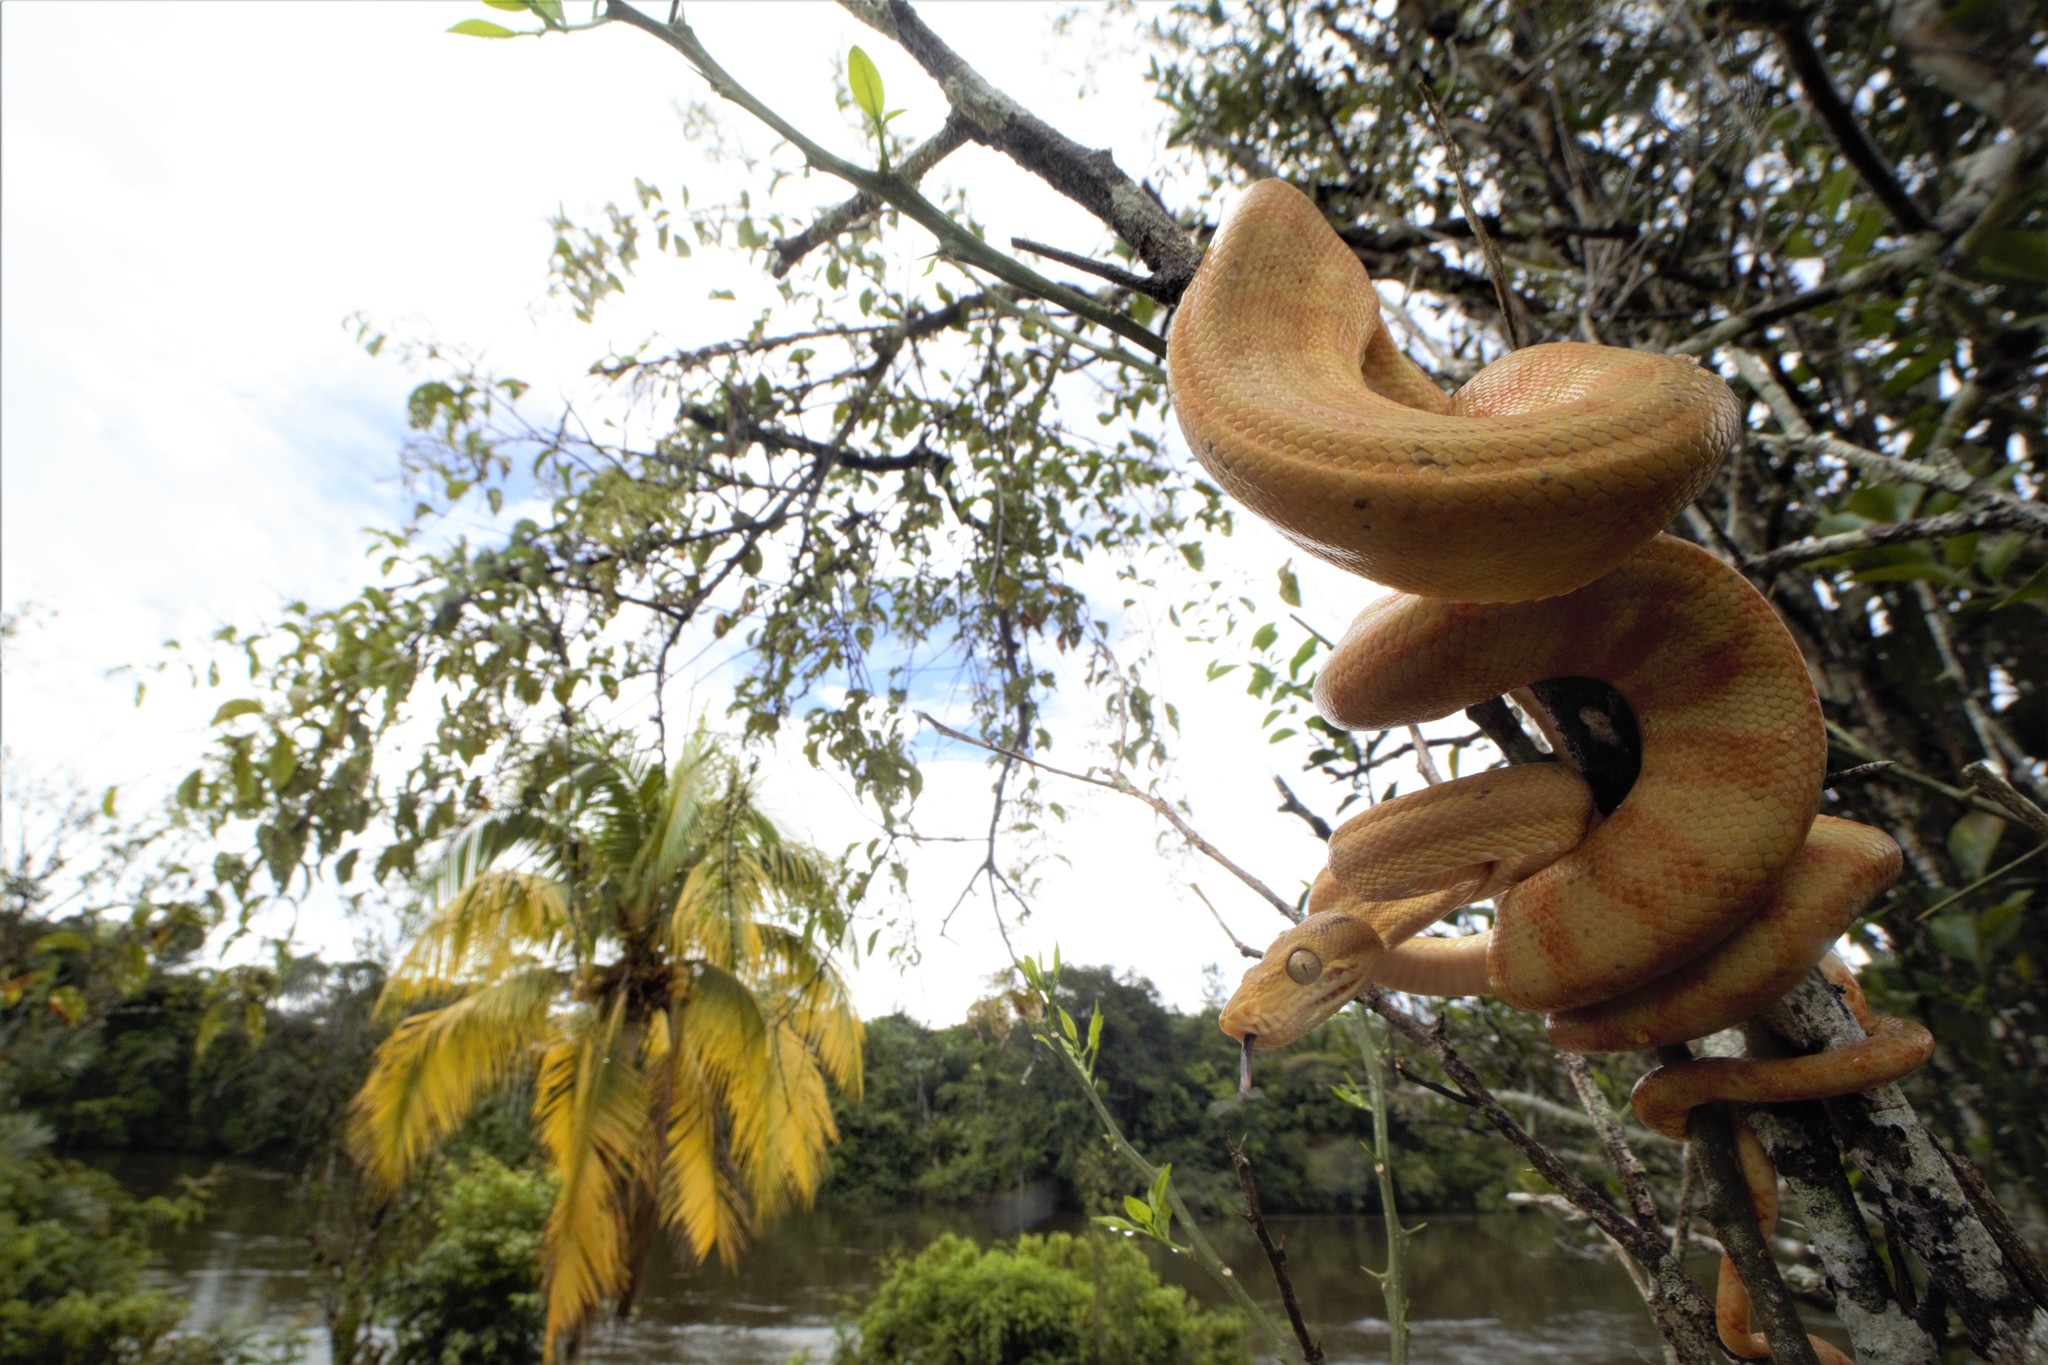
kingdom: Animalia
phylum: Chordata
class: Squamata
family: Boidae
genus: Corallus
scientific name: Corallus hortulana
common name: Garden tree boa
